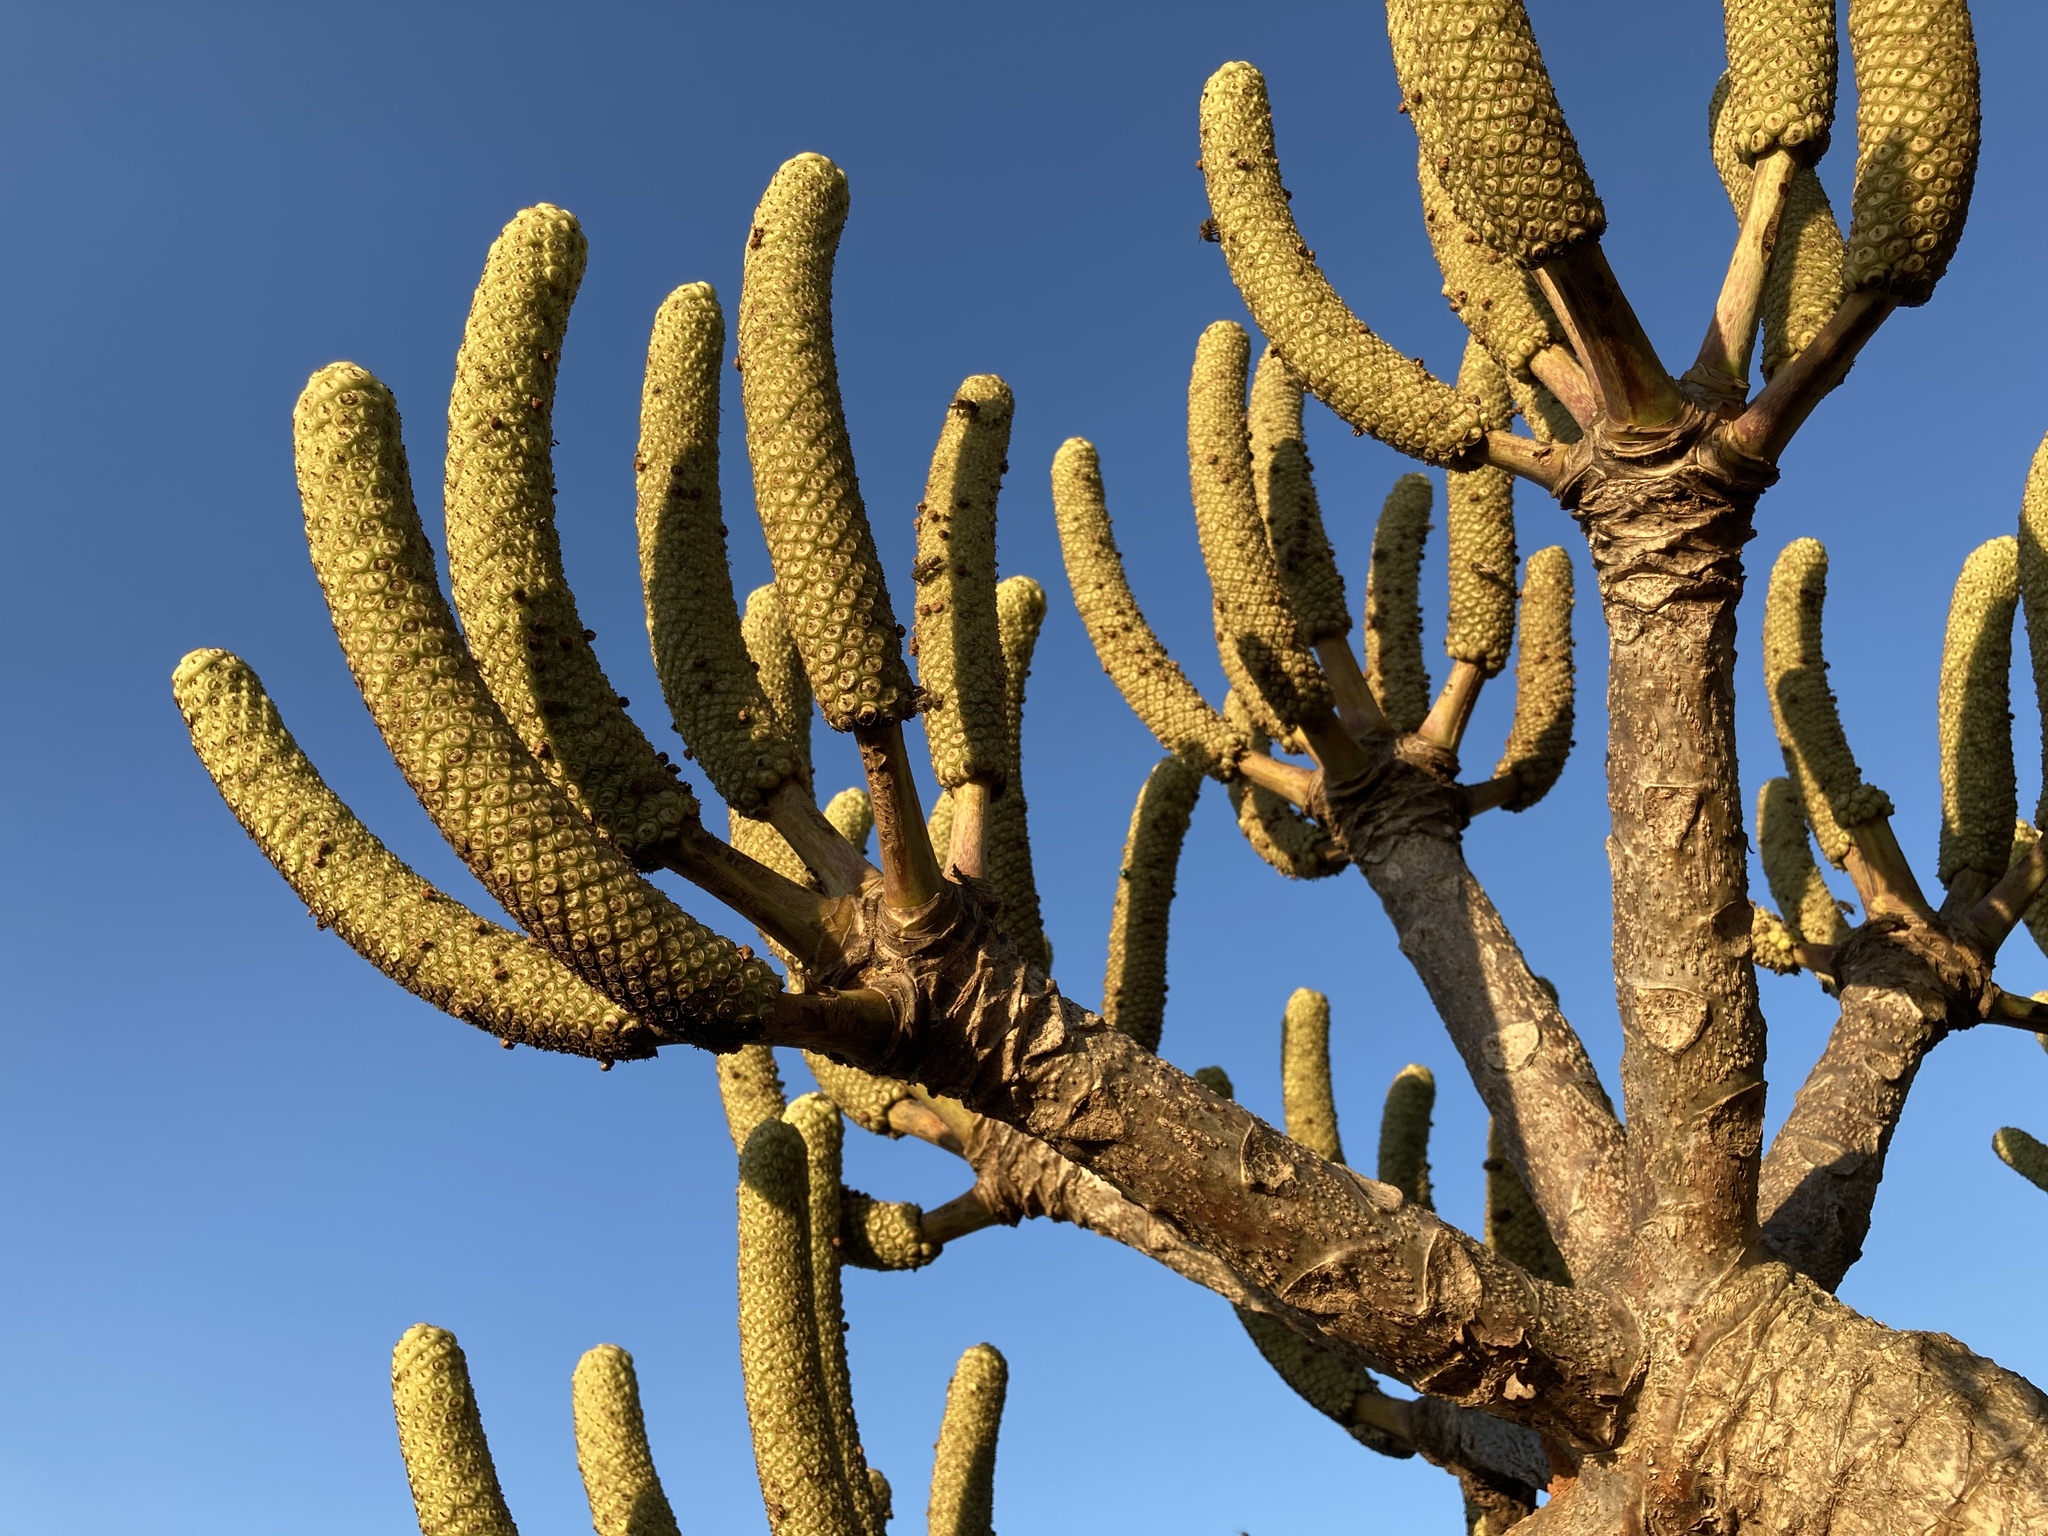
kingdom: Plantae
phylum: Tracheophyta
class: Magnoliopsida
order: Apiales
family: Araliaceae
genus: Cussonia
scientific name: Cussonia spicata
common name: Common cabbagetree
